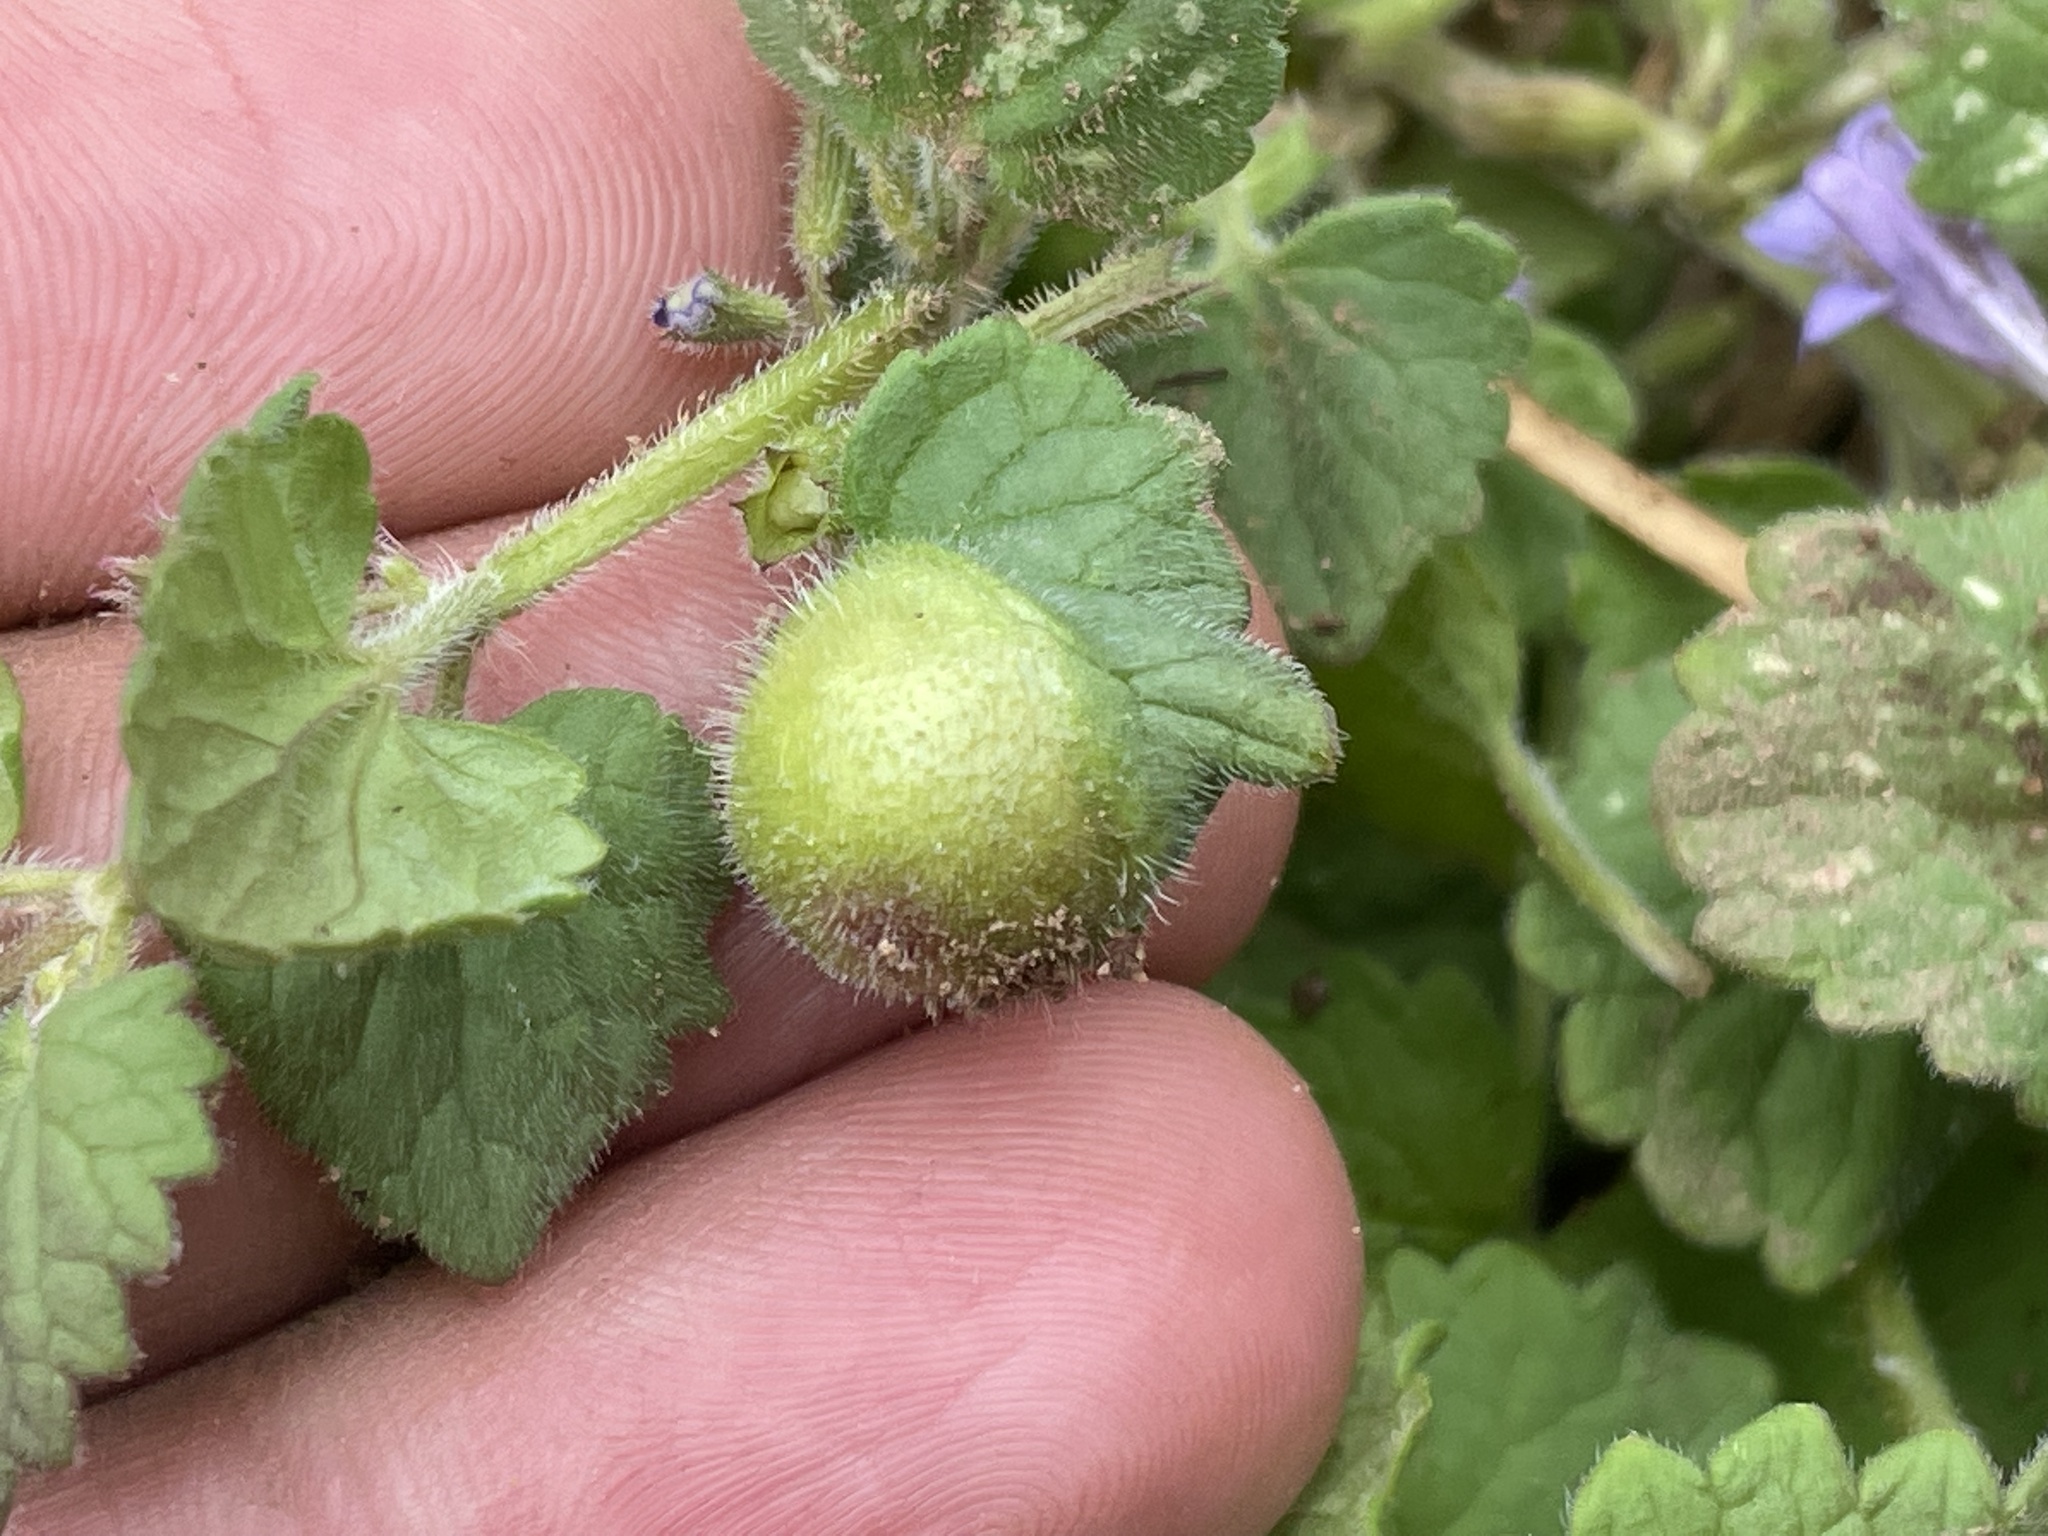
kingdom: Animalia
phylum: Arthropoda
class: Insecta
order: Hymenoptera
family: Cynipidae
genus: Liposthenes
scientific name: Liposthenes glechomae
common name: Gall wasp
